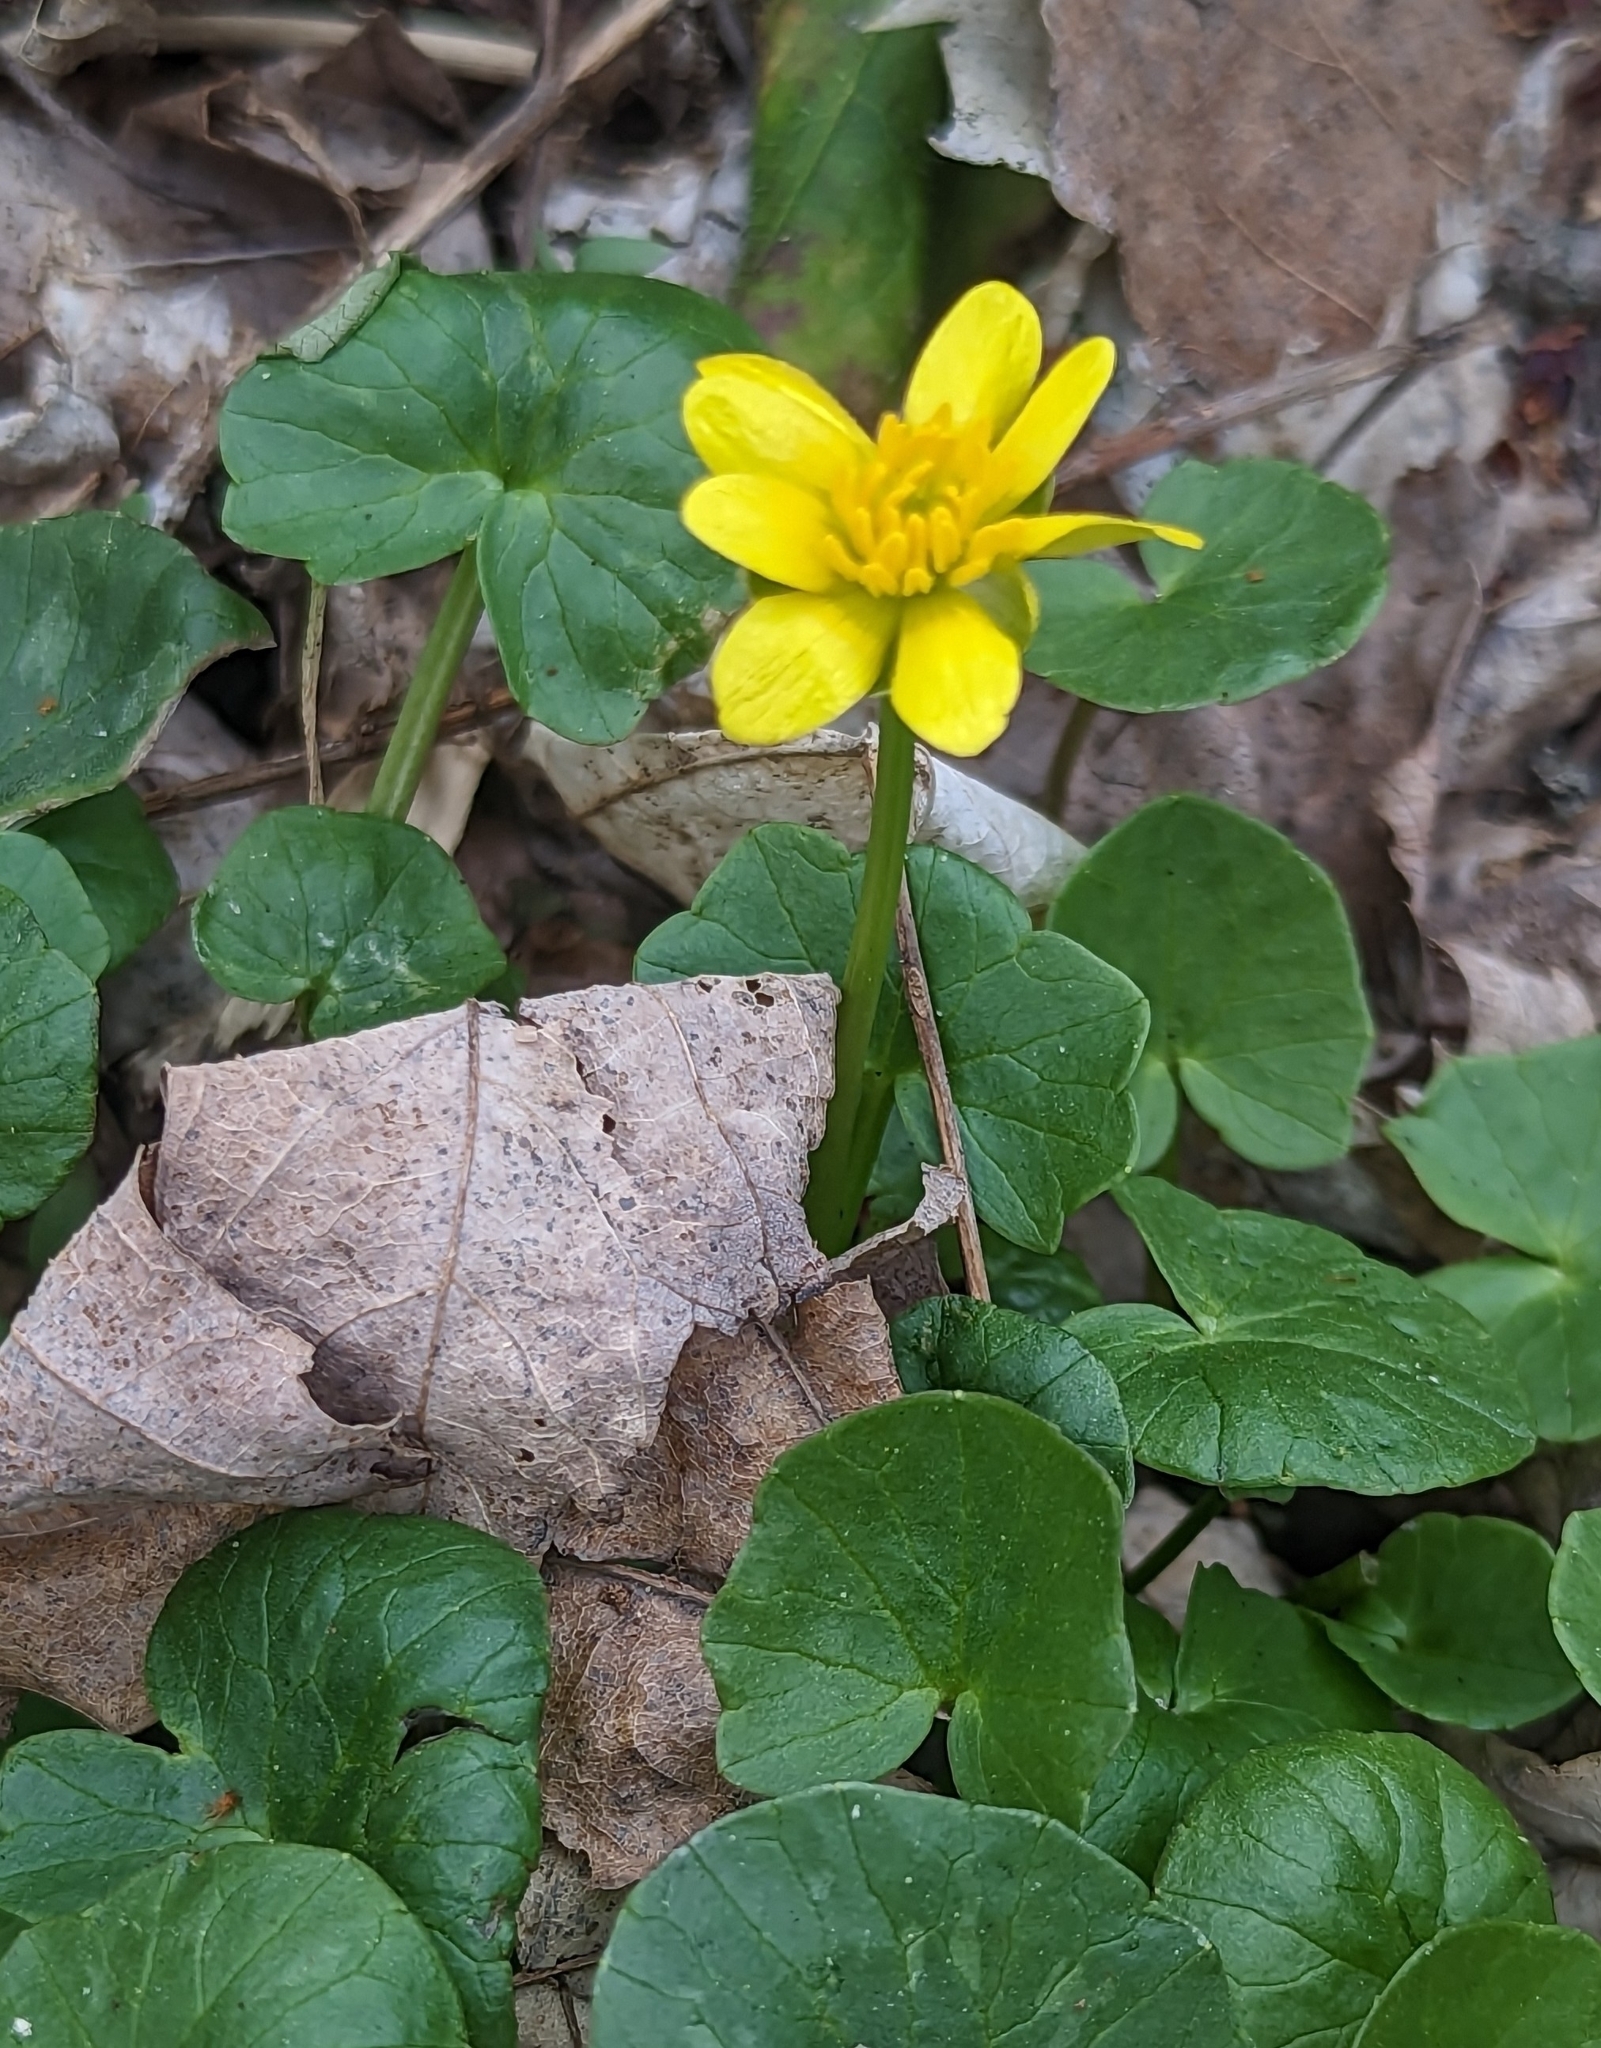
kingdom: Plantae
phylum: Tracheophyta
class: Magnoliopsida
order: Ranunculales
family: Ranunculaceae
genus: Ficaria
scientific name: Ficaria verna
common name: Lesser celandine
